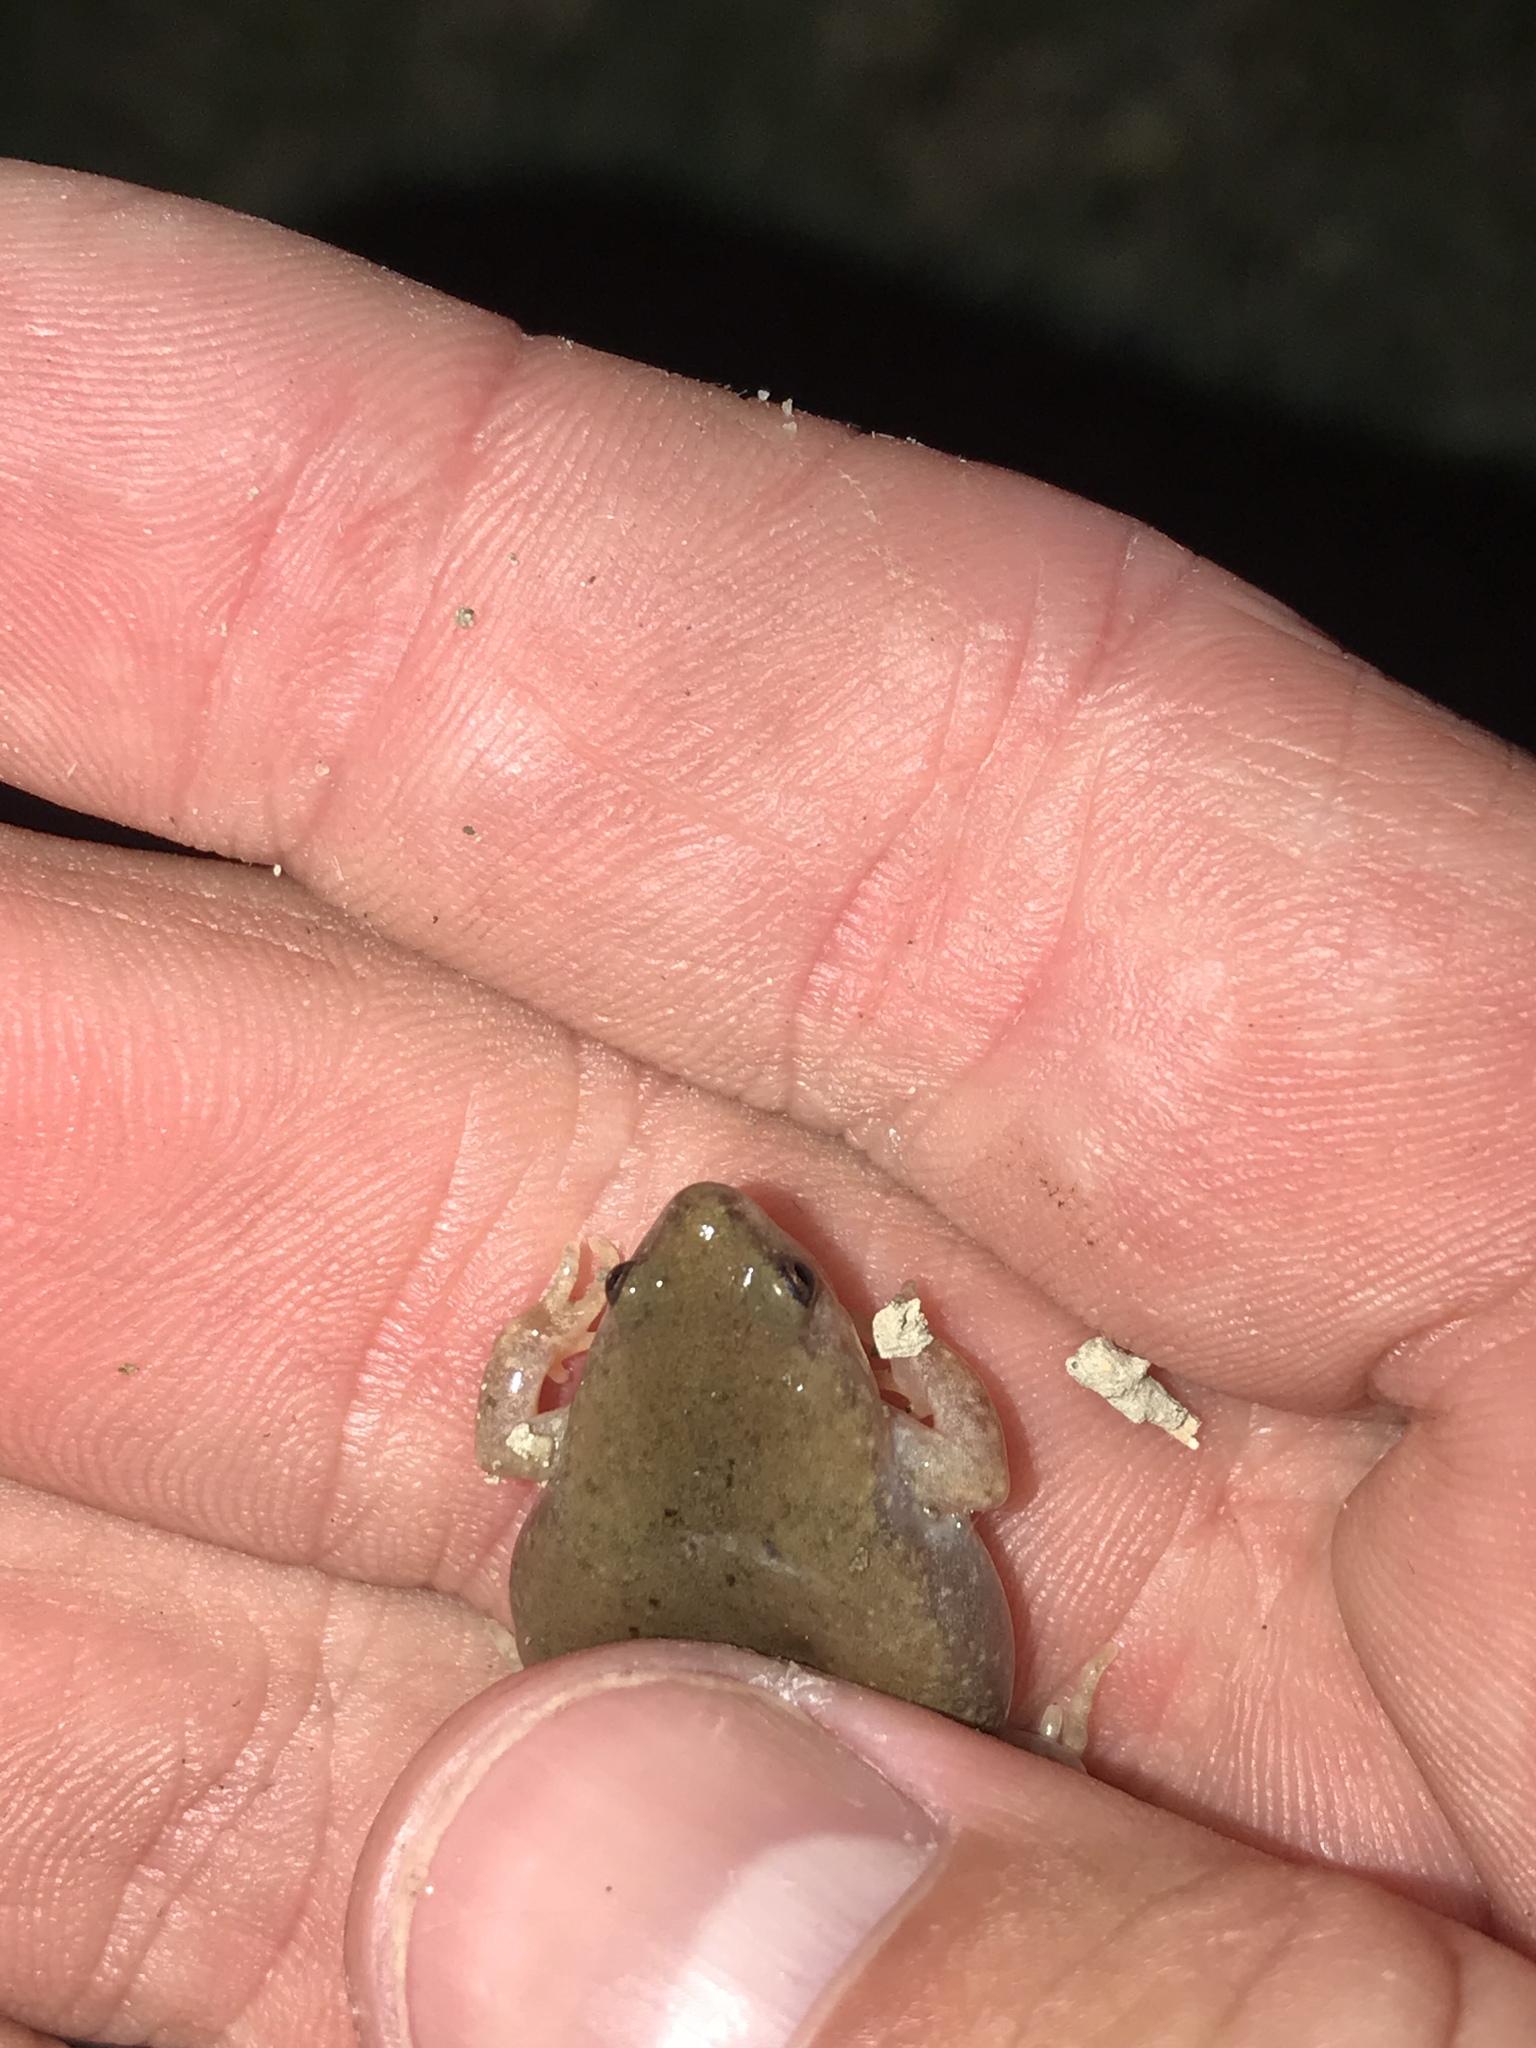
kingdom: Animalia
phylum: Chordata
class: Amphibia
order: Anura
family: Microhylidae
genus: Gastrophryne
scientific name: Gastrophryne olivacea
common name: Great plains narrow-mouthed toad
